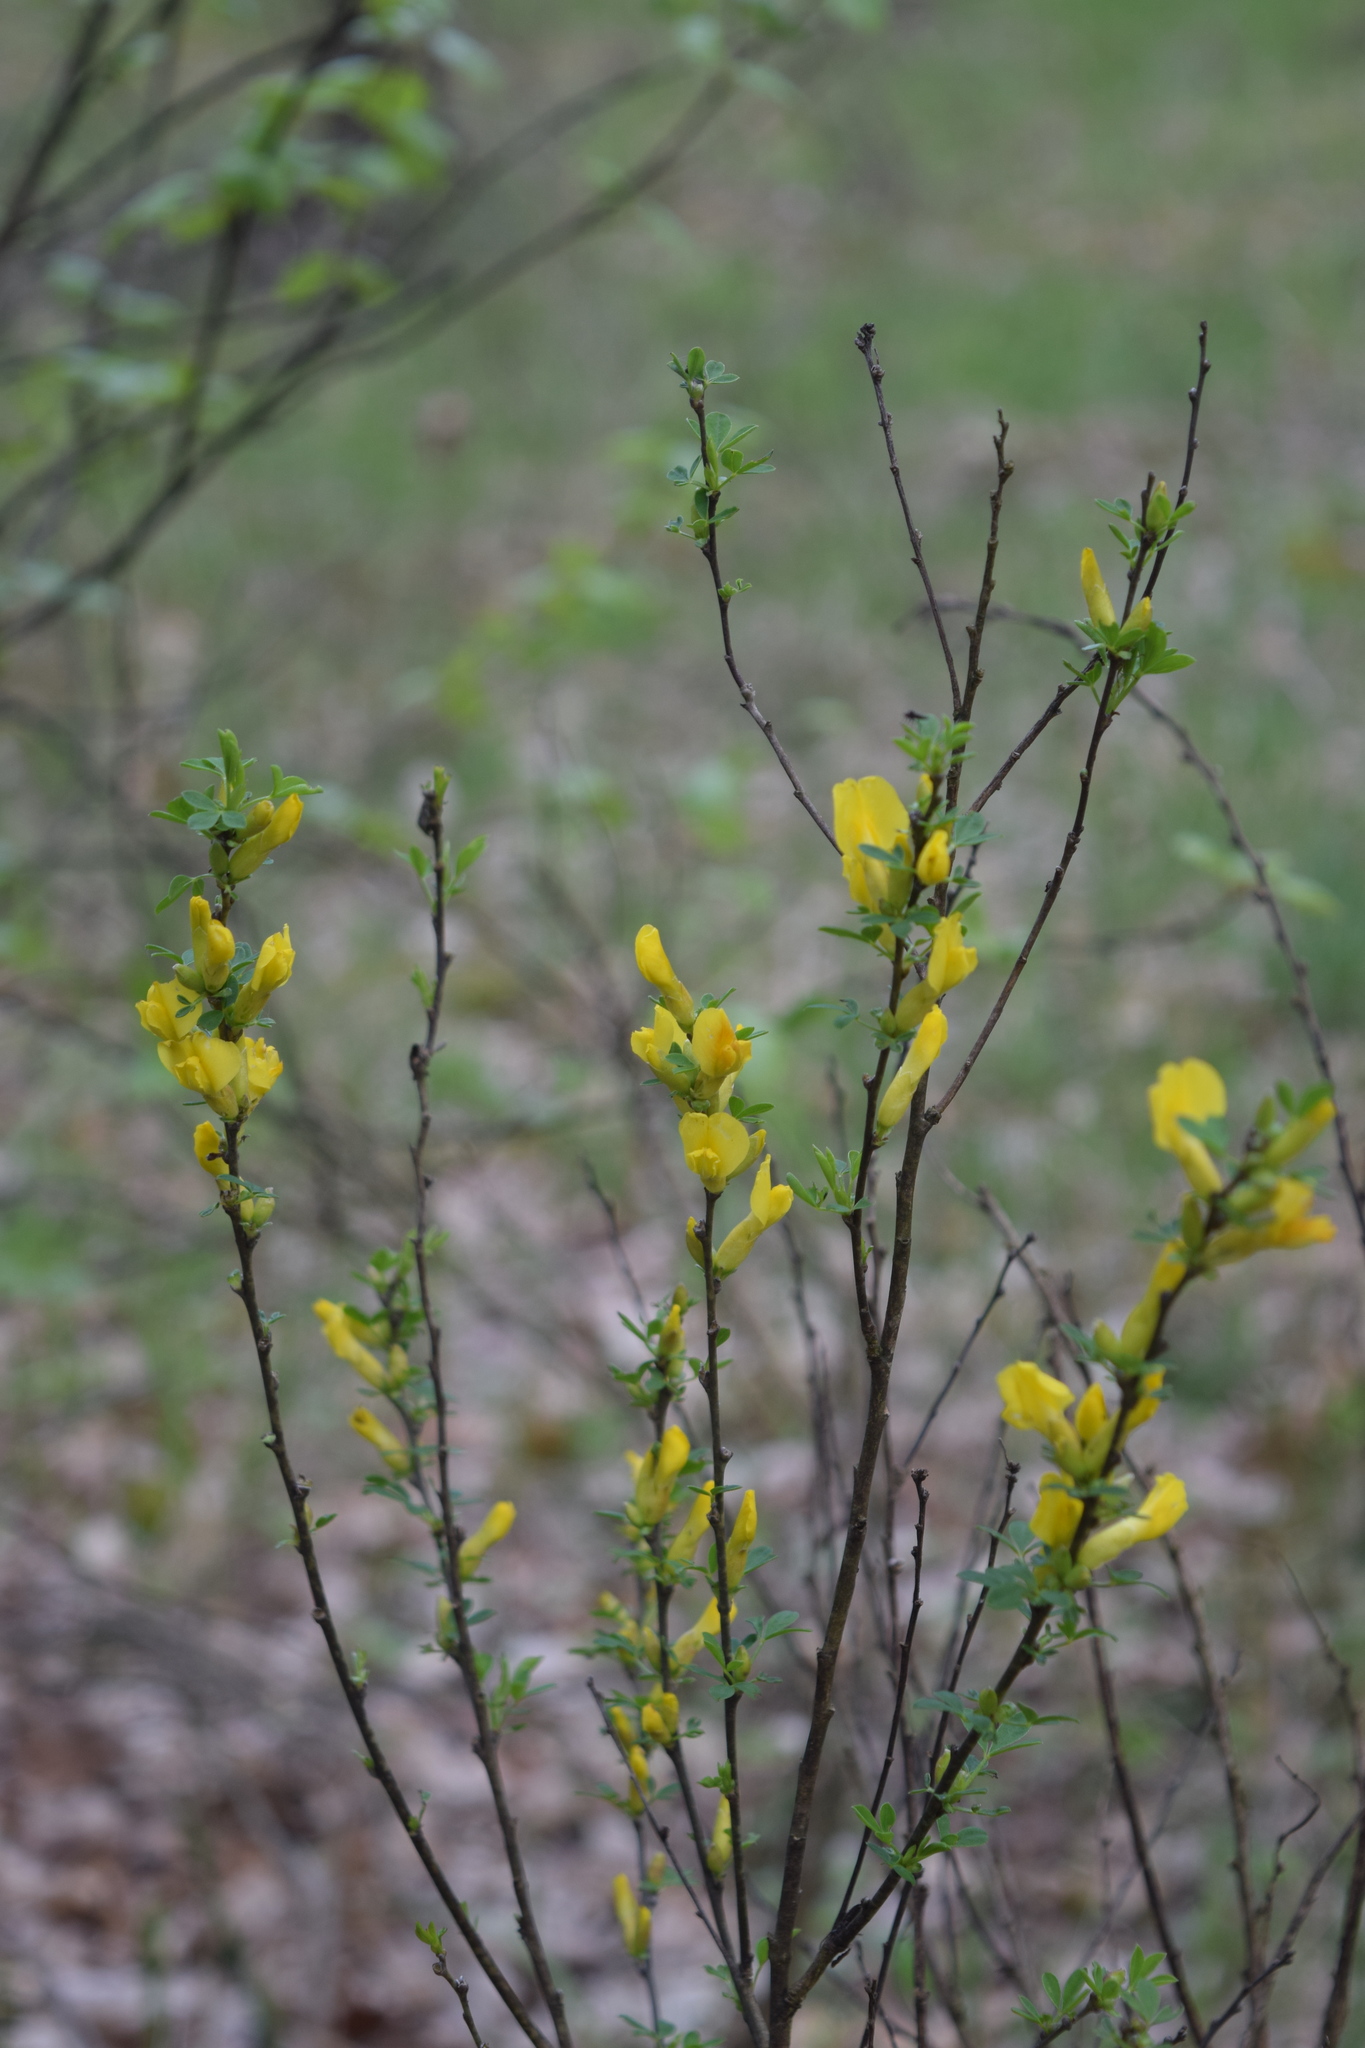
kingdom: Plantae
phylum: Tracheophyta
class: Magnoliopsida
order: Fabales
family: Fabaceae
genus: Chamaecytisus
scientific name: Chamaecytisus ruthenicus
